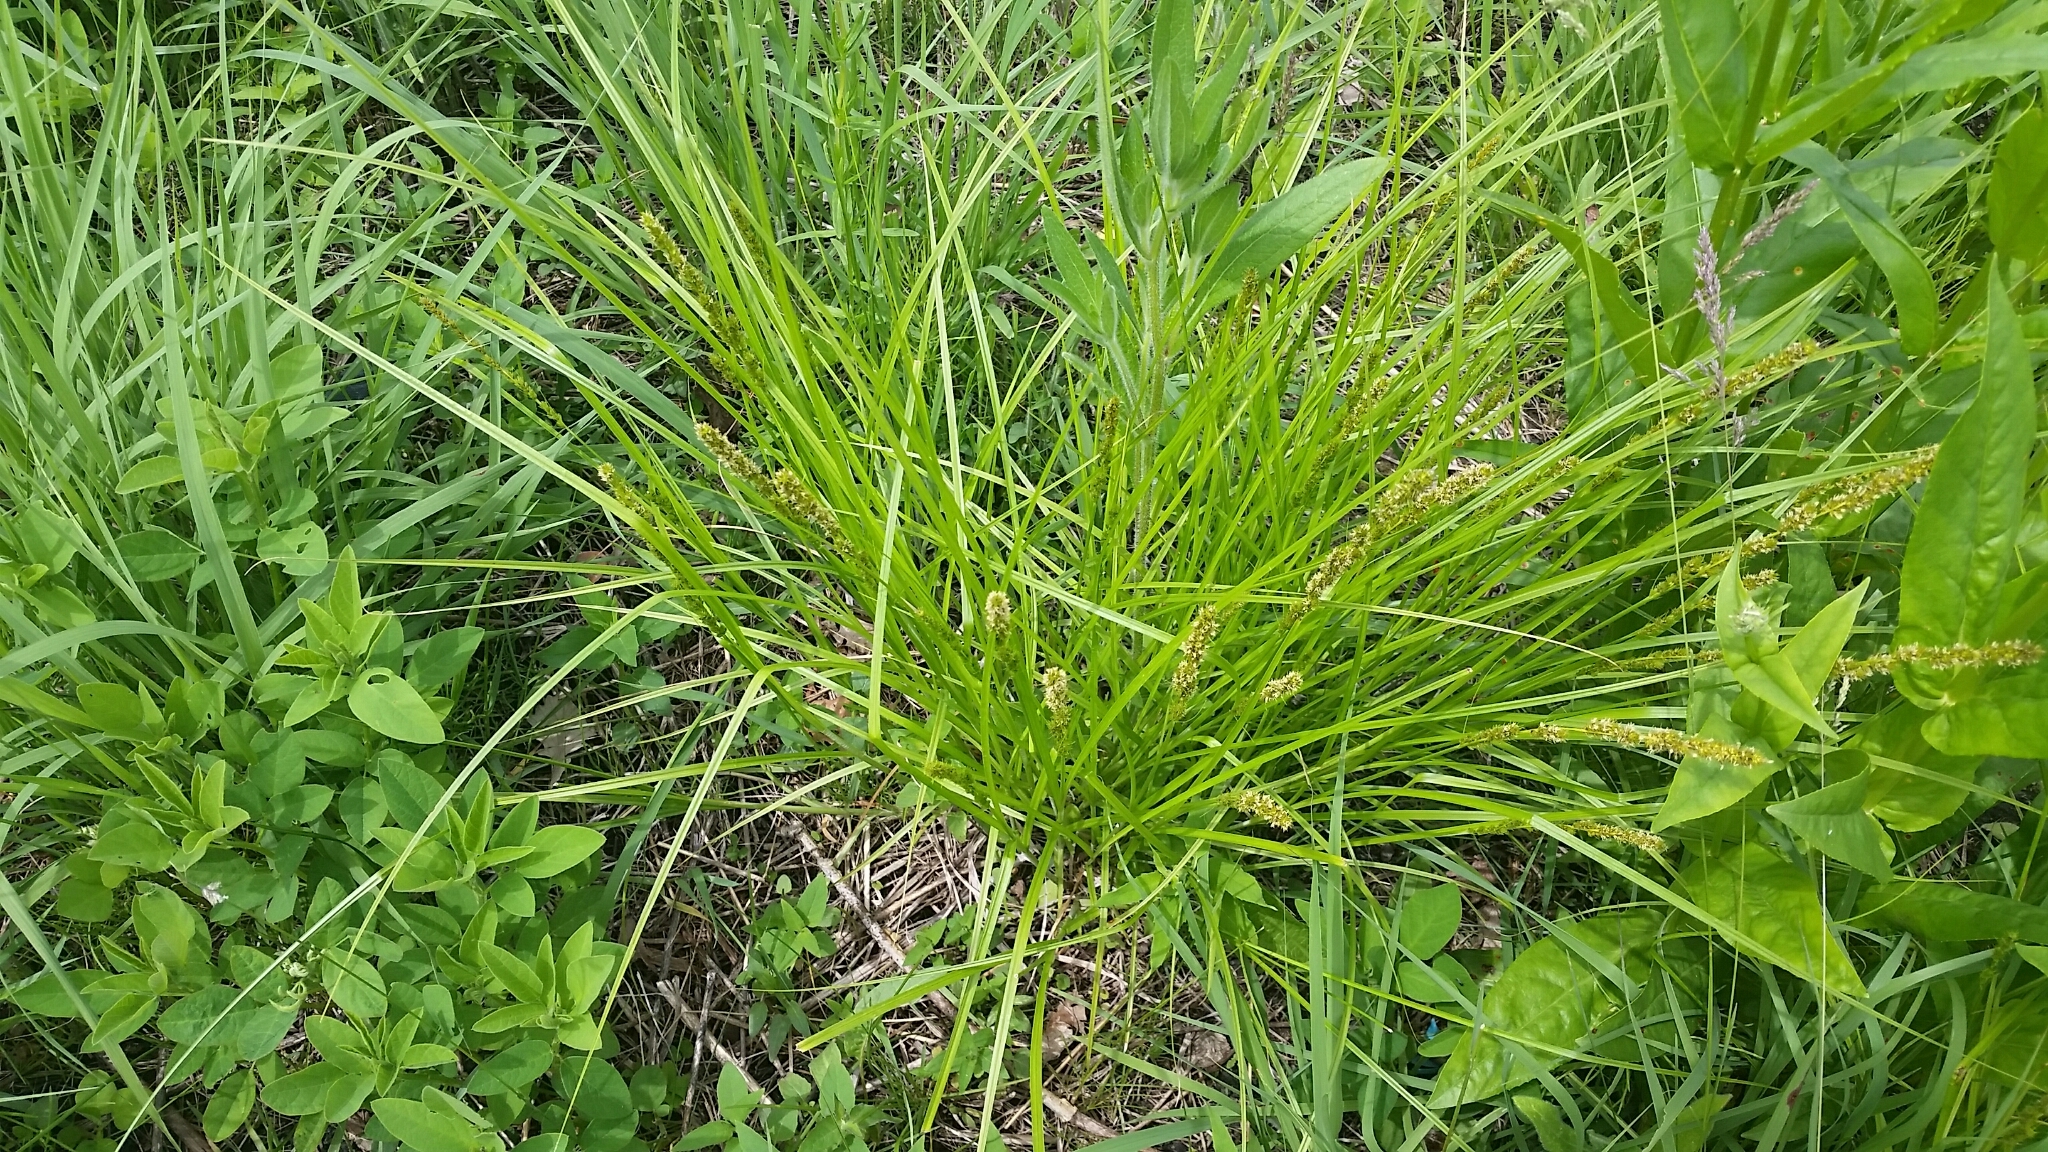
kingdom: Plantae
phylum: Tracheophyta
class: Liliopsida
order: Poales
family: Cyperaceae
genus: Carex
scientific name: Carex vulpinoidea
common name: American fox-sedge
